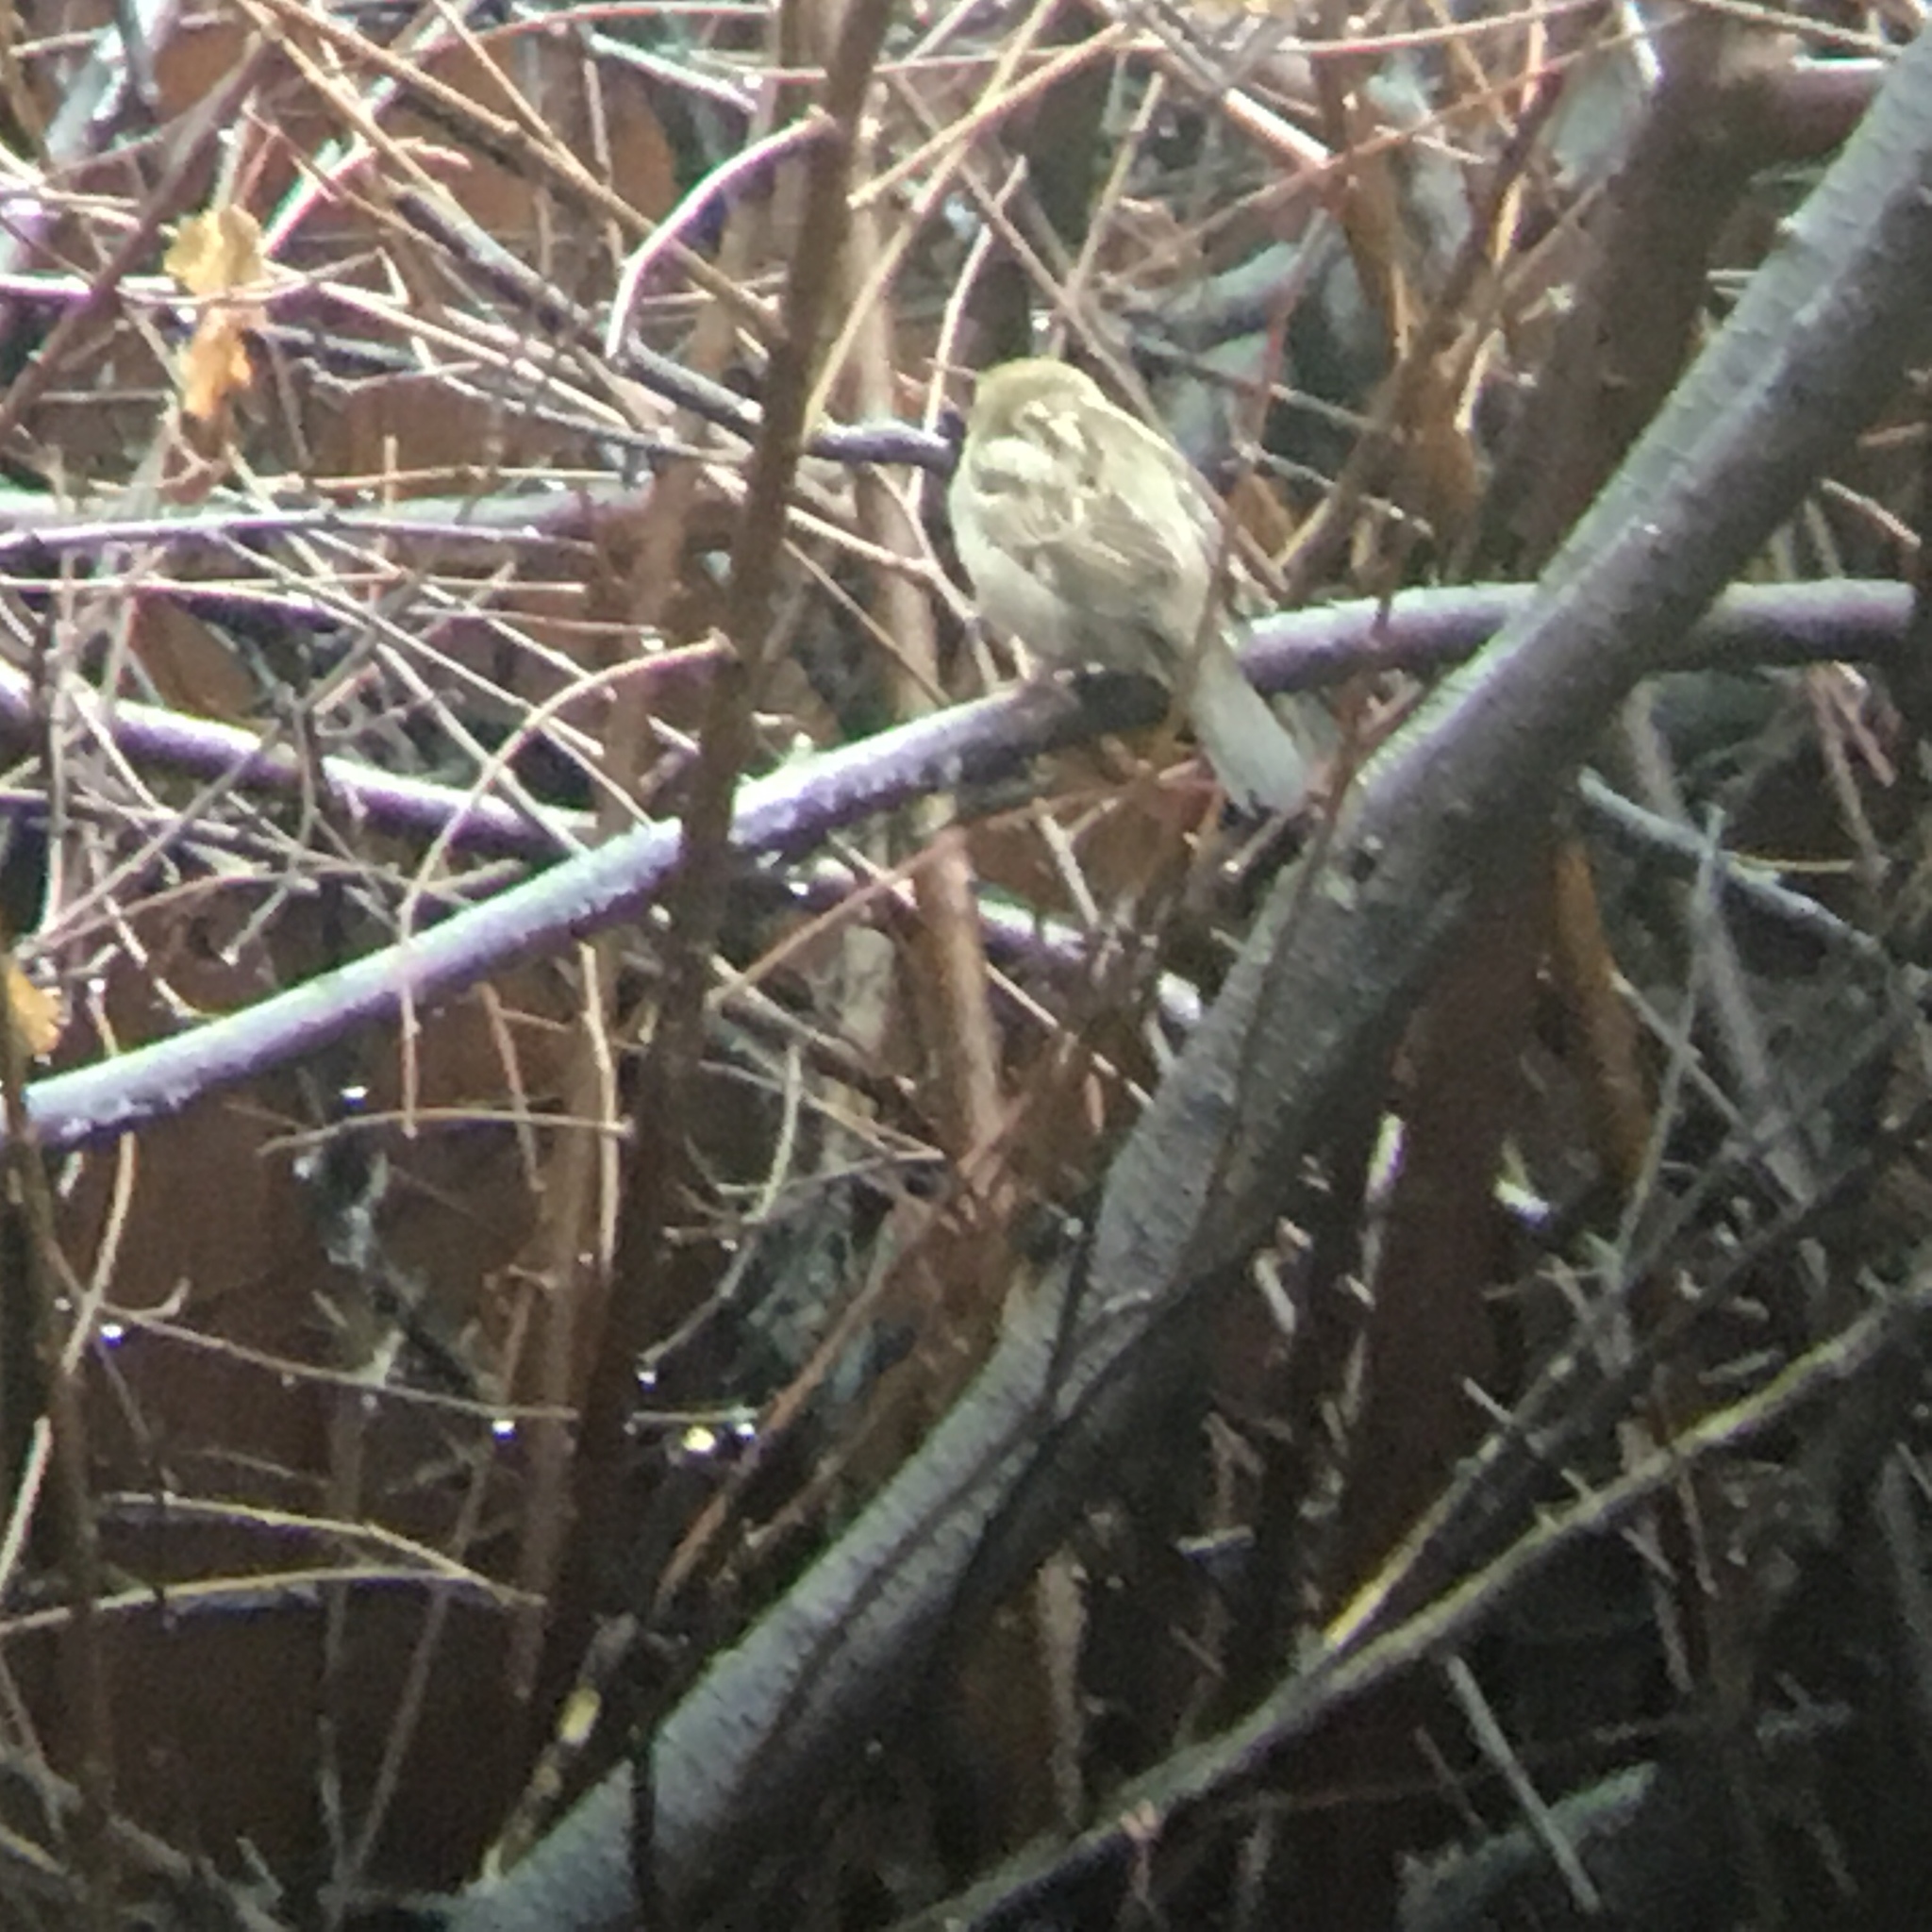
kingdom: Animalia
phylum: Chordata
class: Aves
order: Passeriformes
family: Passeridae
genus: Passer
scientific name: Passer domesticus
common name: House sparrow
